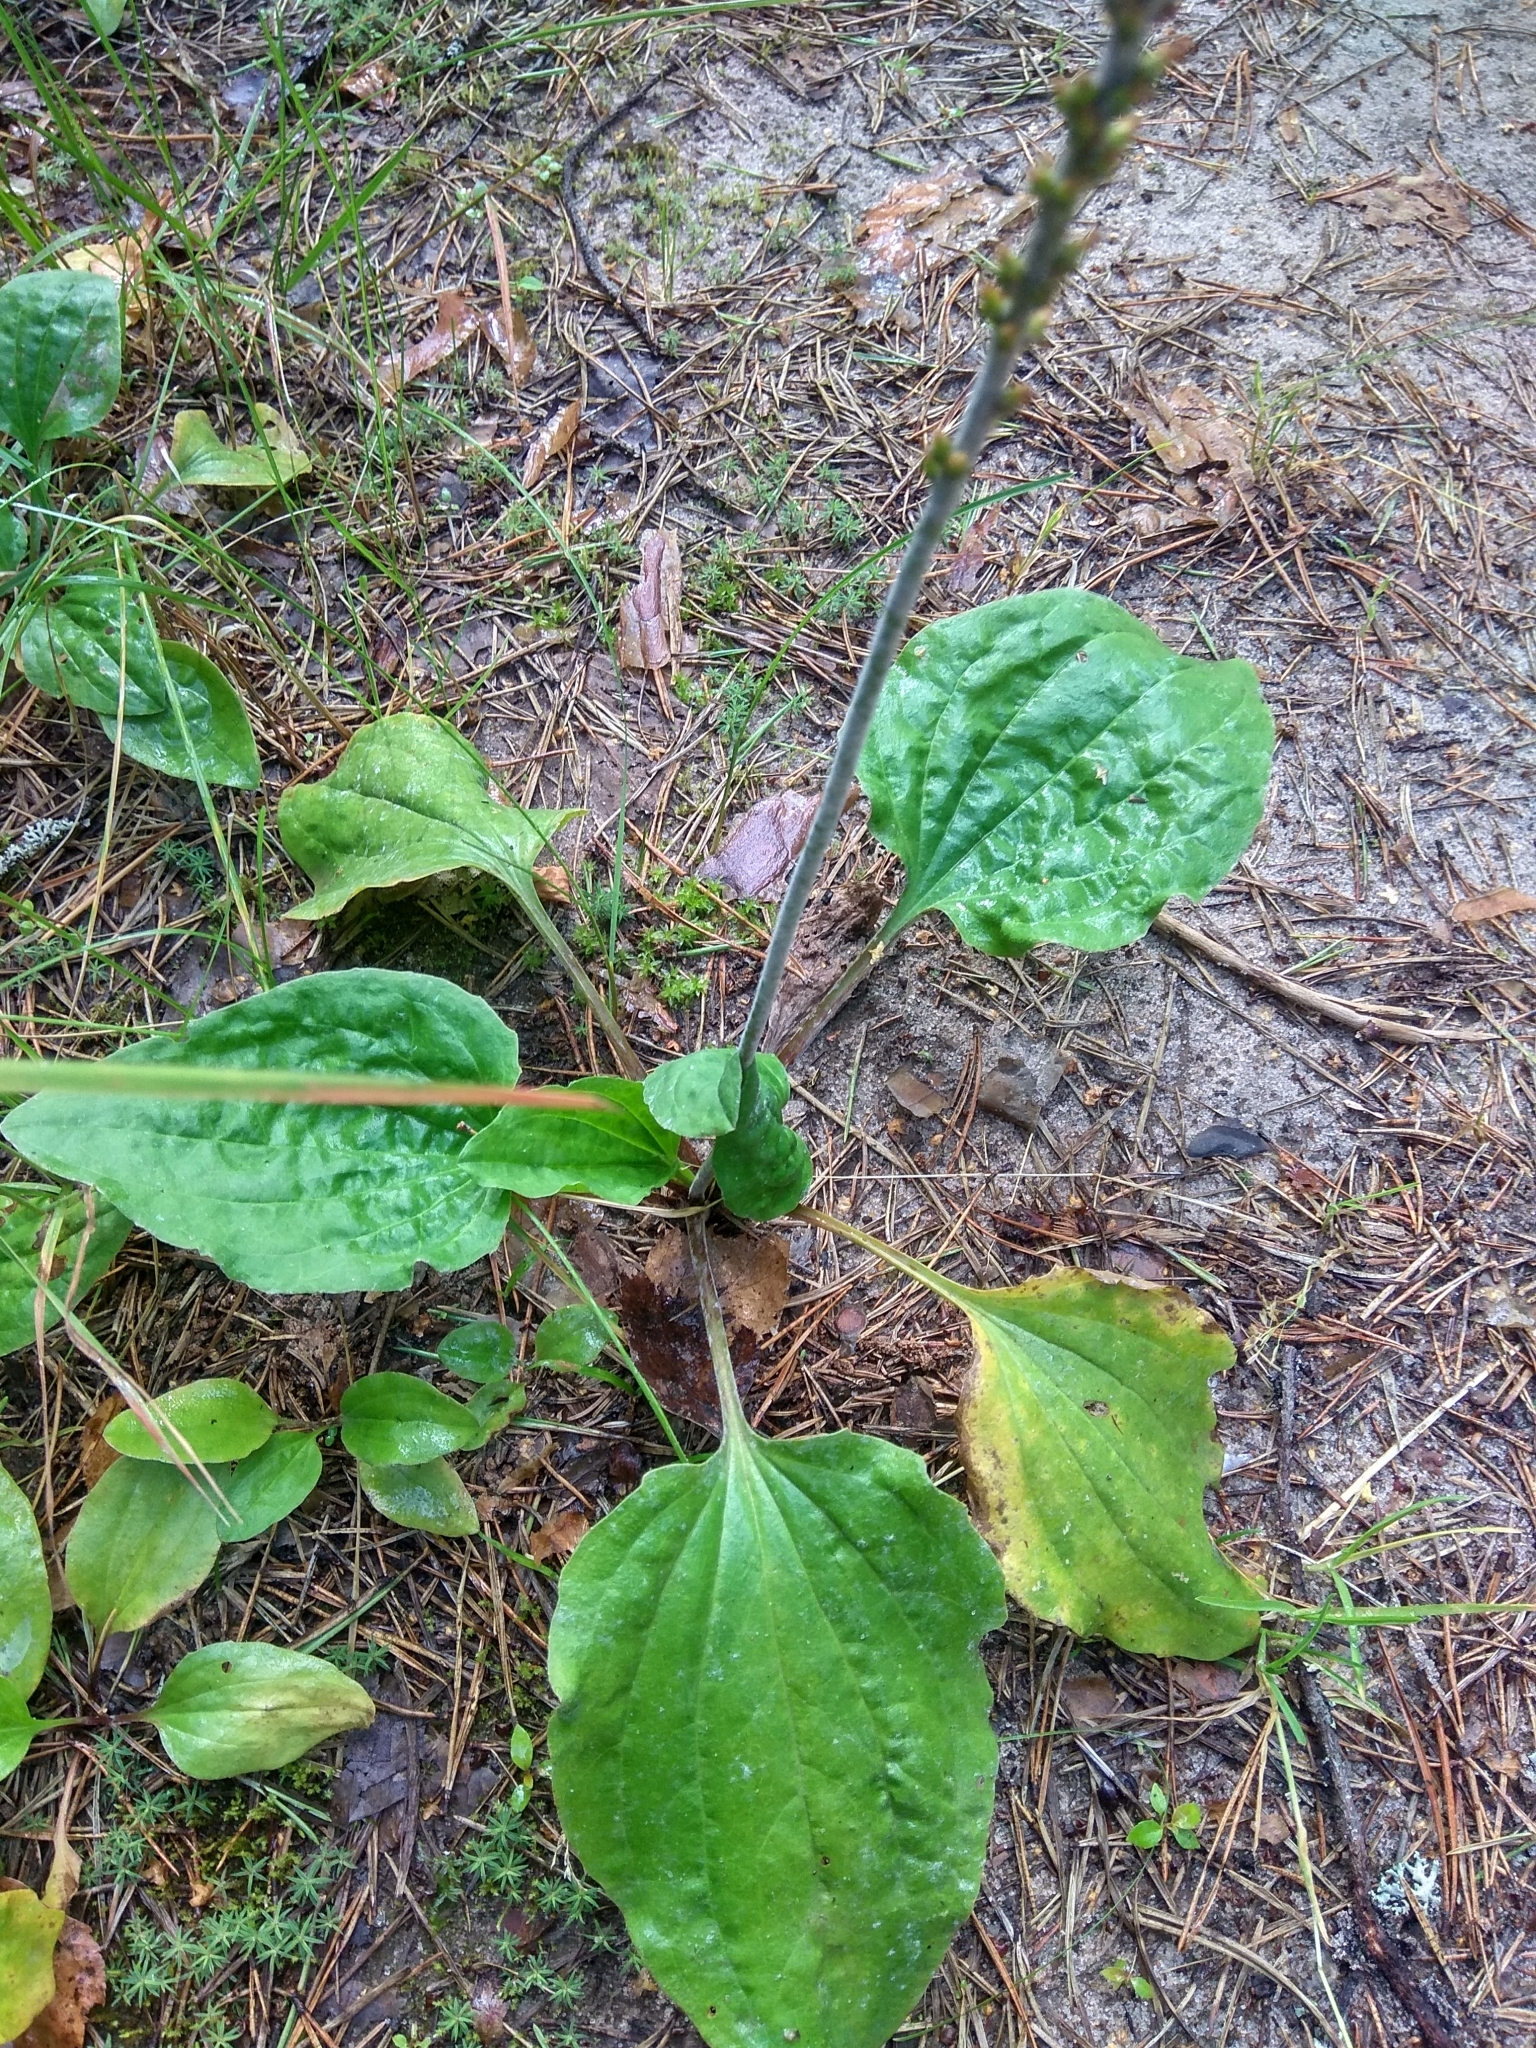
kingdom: Plantae
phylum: Tracheophyta
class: Magnoliopsida
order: Lamiales
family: Plantaginaceae
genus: Plantago
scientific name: Plantago major
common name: Common plantain
